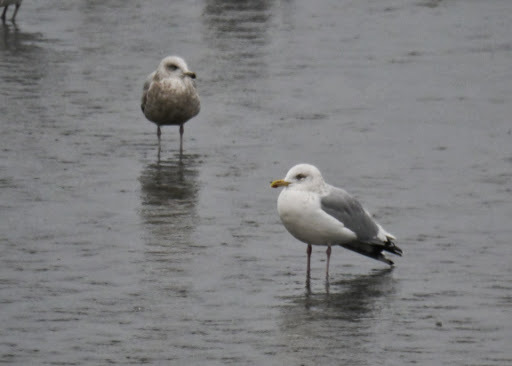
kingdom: Animalia
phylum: Chordata
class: Aves
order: Charadriiformes
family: Laridae
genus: Larus
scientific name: Larus argentatus
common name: Herring gull
